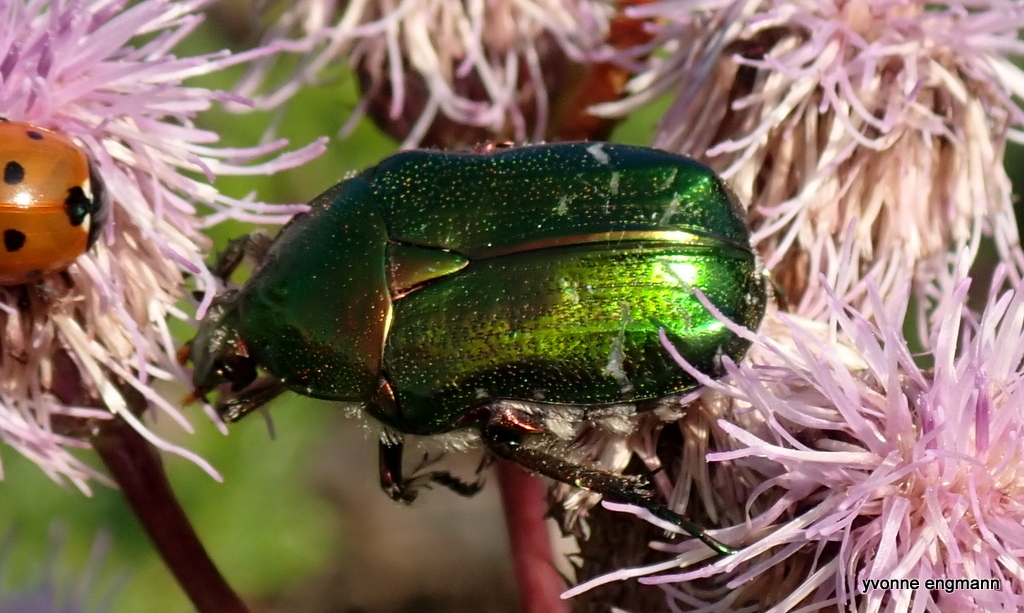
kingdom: Animalia
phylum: Arthropoda
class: Insecta
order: Coleoptera
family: Scarabaeidae
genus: Cetonia
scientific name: Cetonia aurata
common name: Rose chafer
